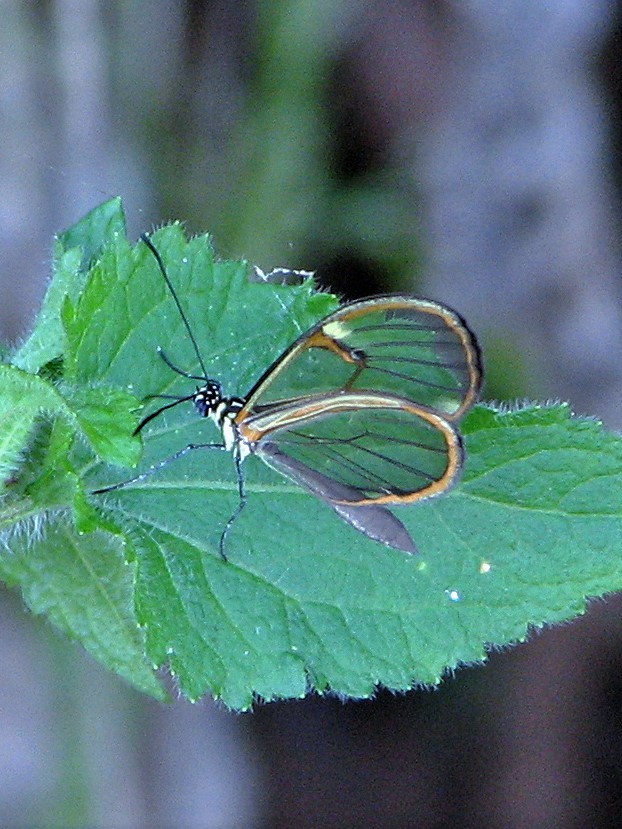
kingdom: Animalia
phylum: Arthropoda
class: Insecta
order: Lepidoptera
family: Nymphalidae
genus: Episcada
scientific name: Episcada hymenaea
